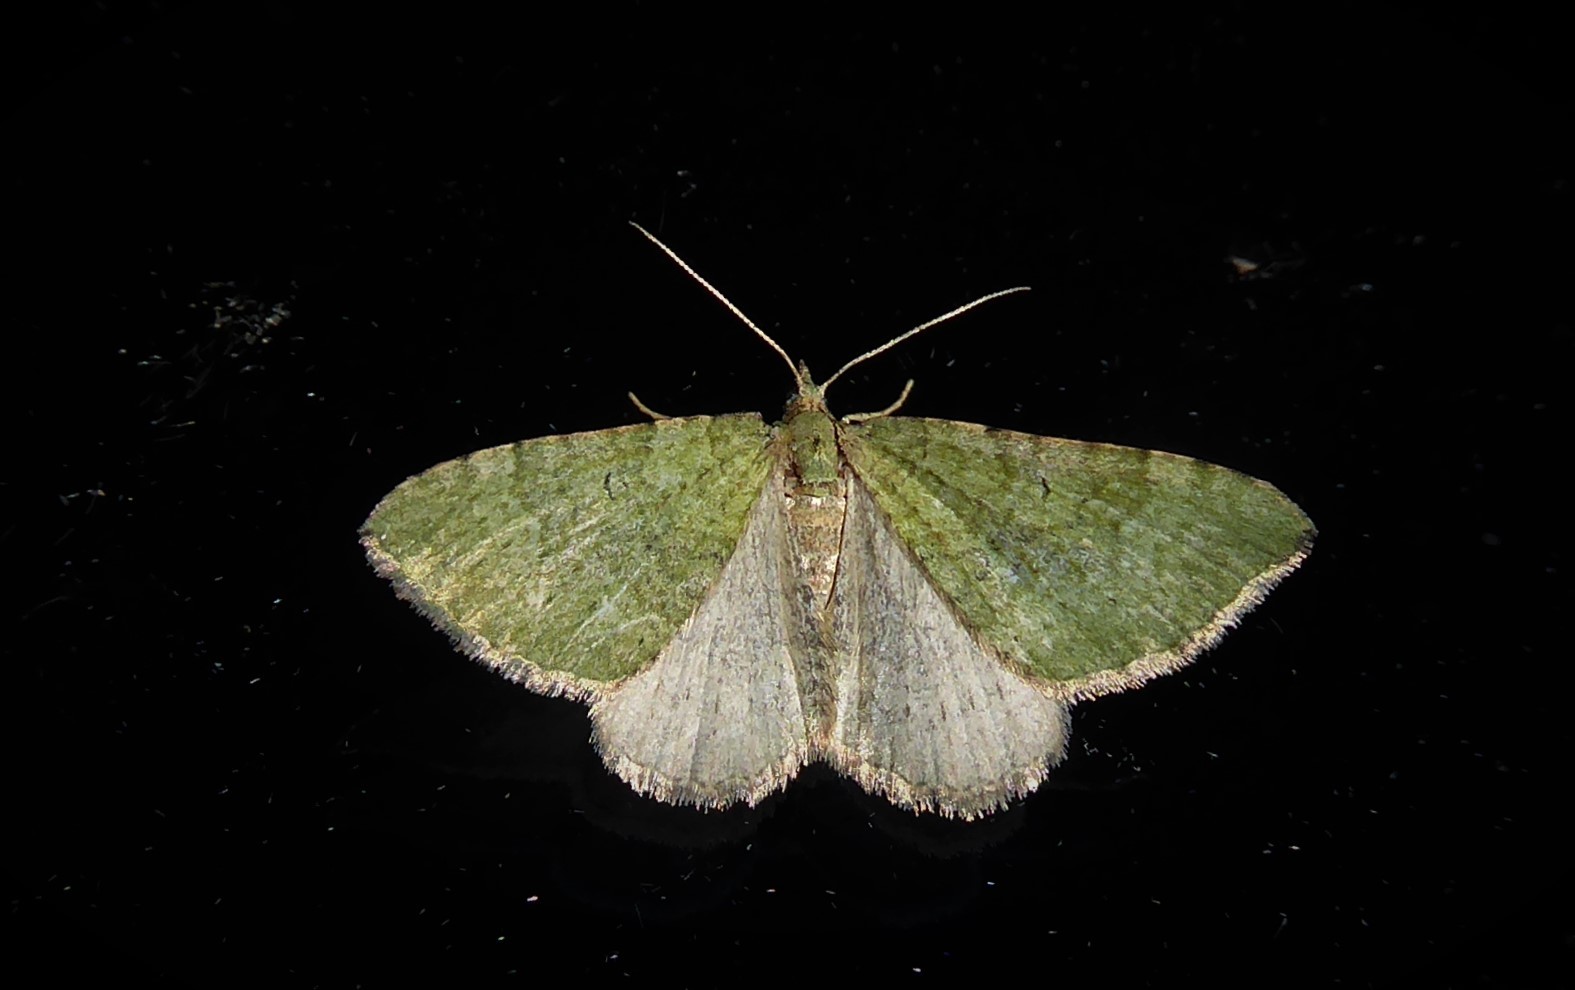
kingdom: Animalia
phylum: Arthropoda
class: Insecta
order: Lepidoptera
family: Geometridae
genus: Epyaxa
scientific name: Epyaxa rosearia
